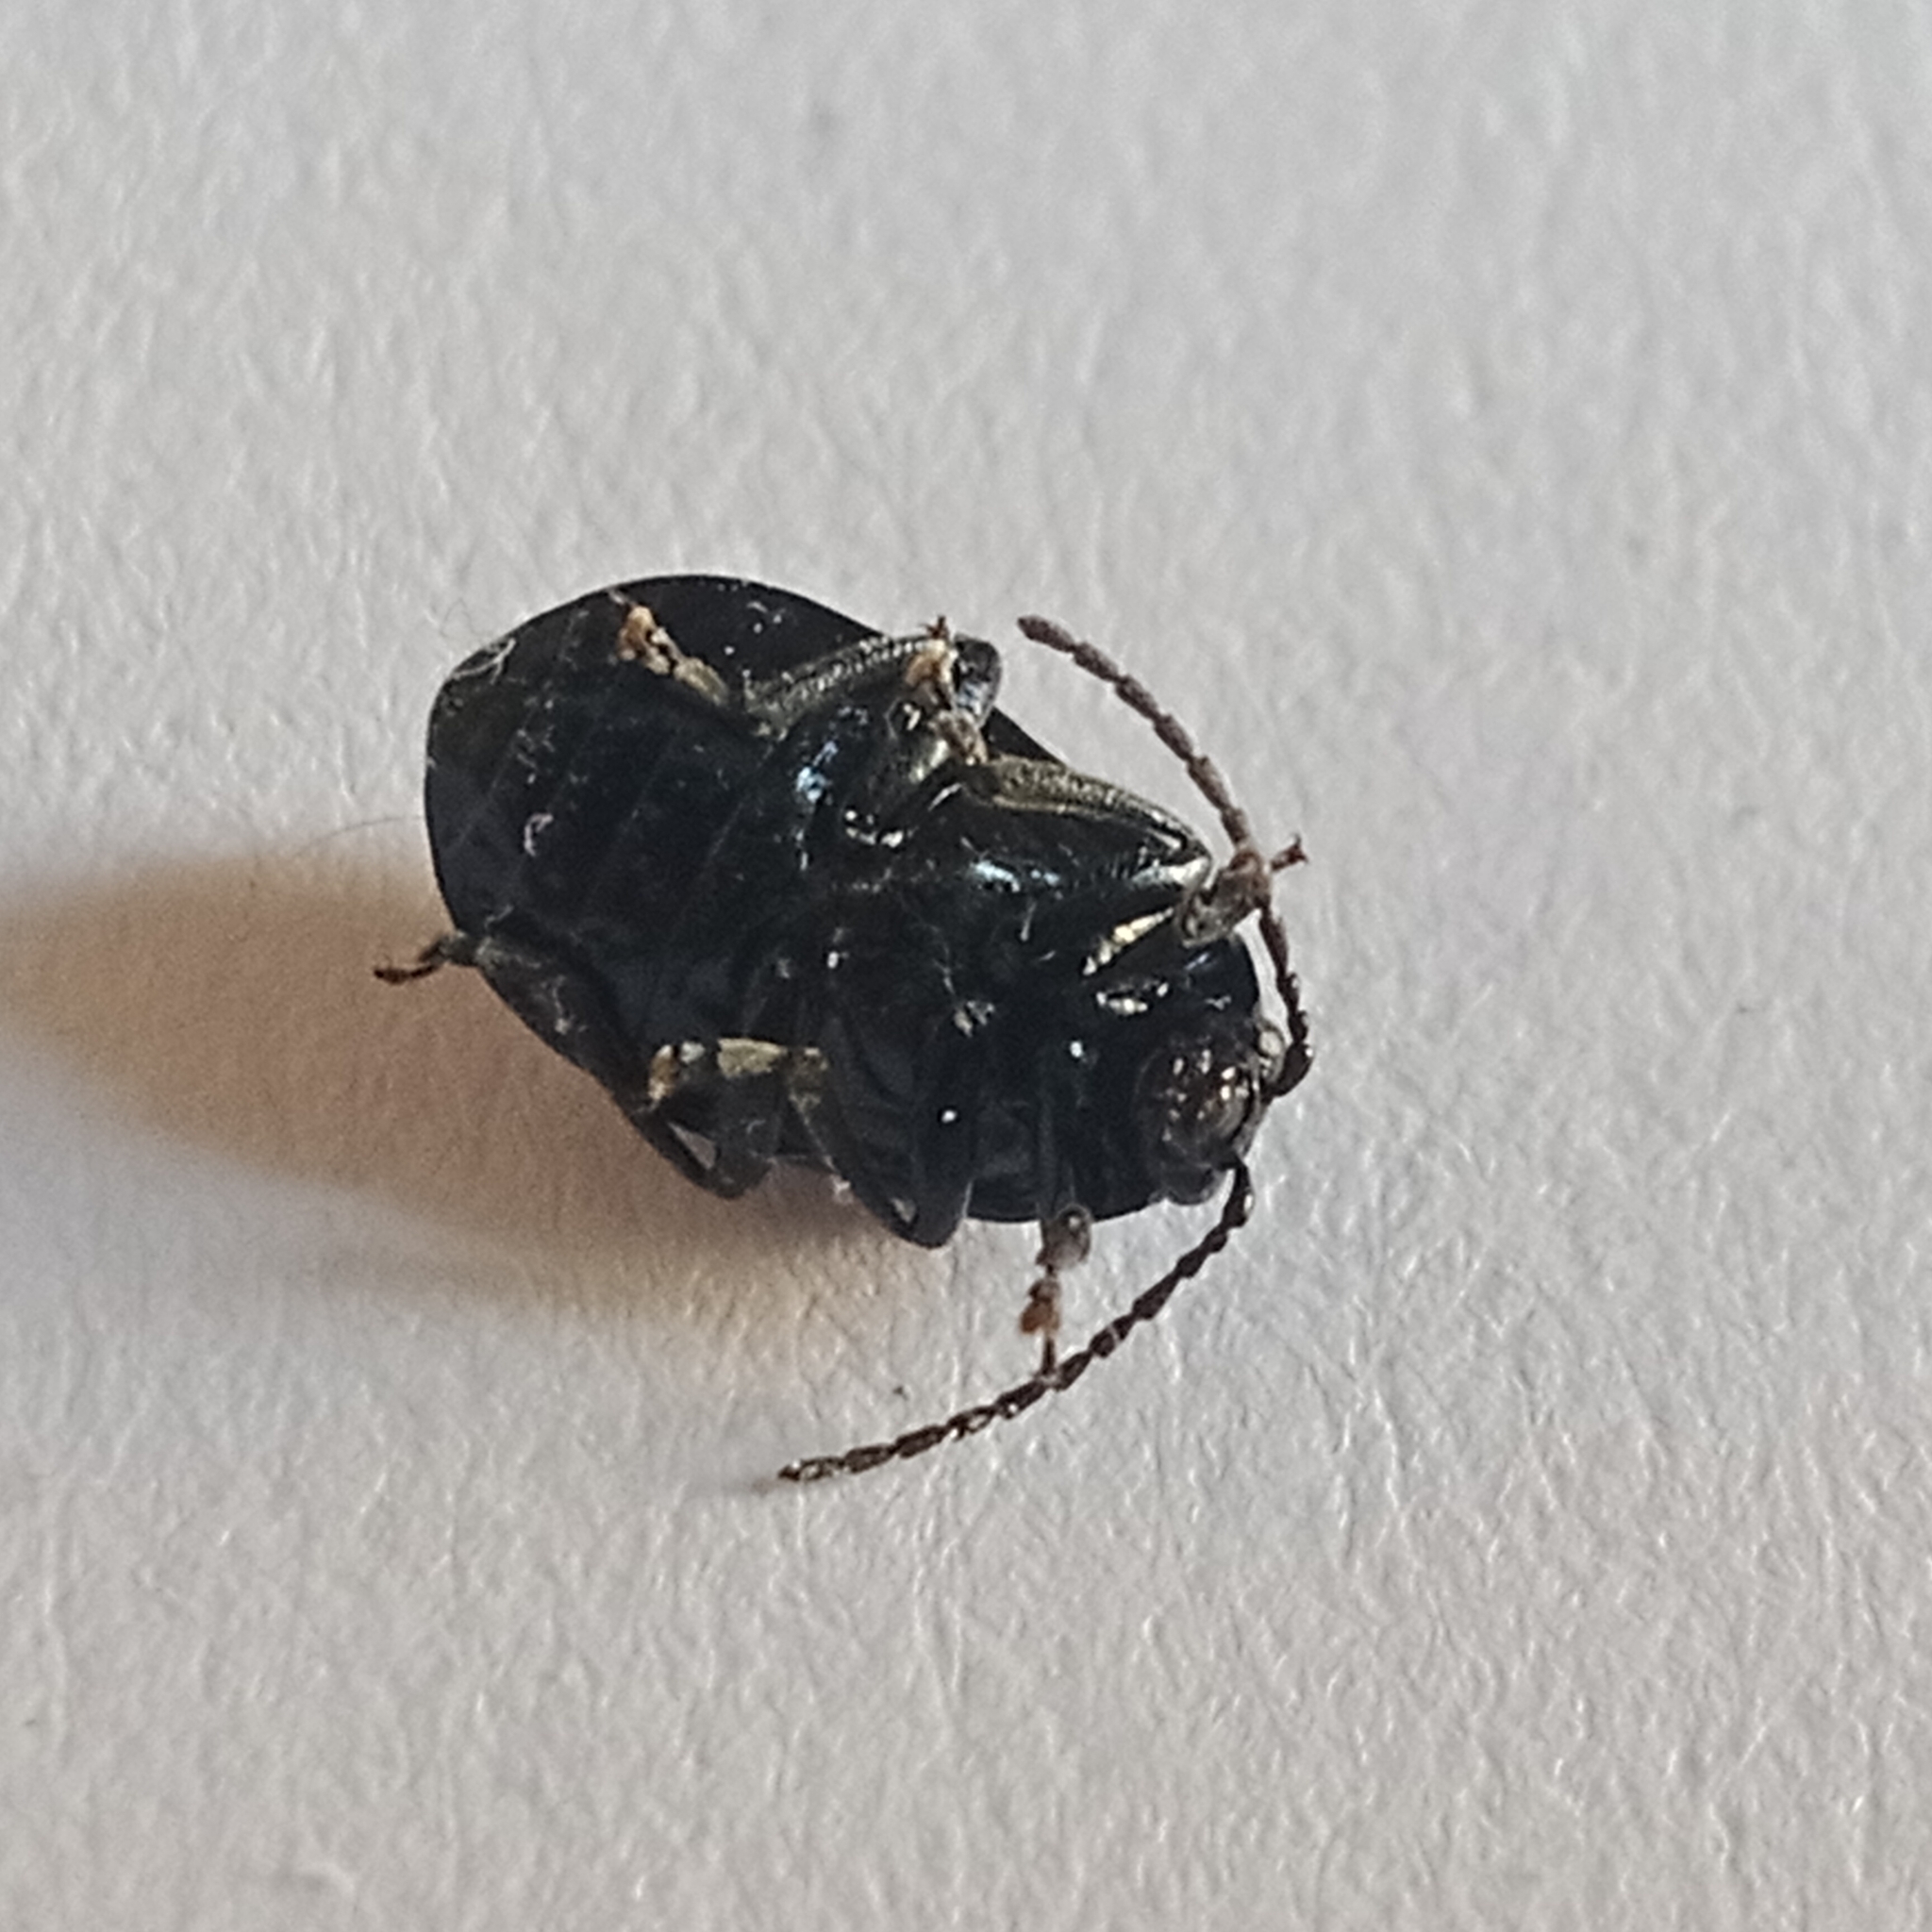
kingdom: Animalia
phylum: Arthropoda
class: Insecta
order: Coleoptera
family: Chrysomelidae
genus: Agelastica
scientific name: Agelastica alni
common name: Alder leaf beetle
